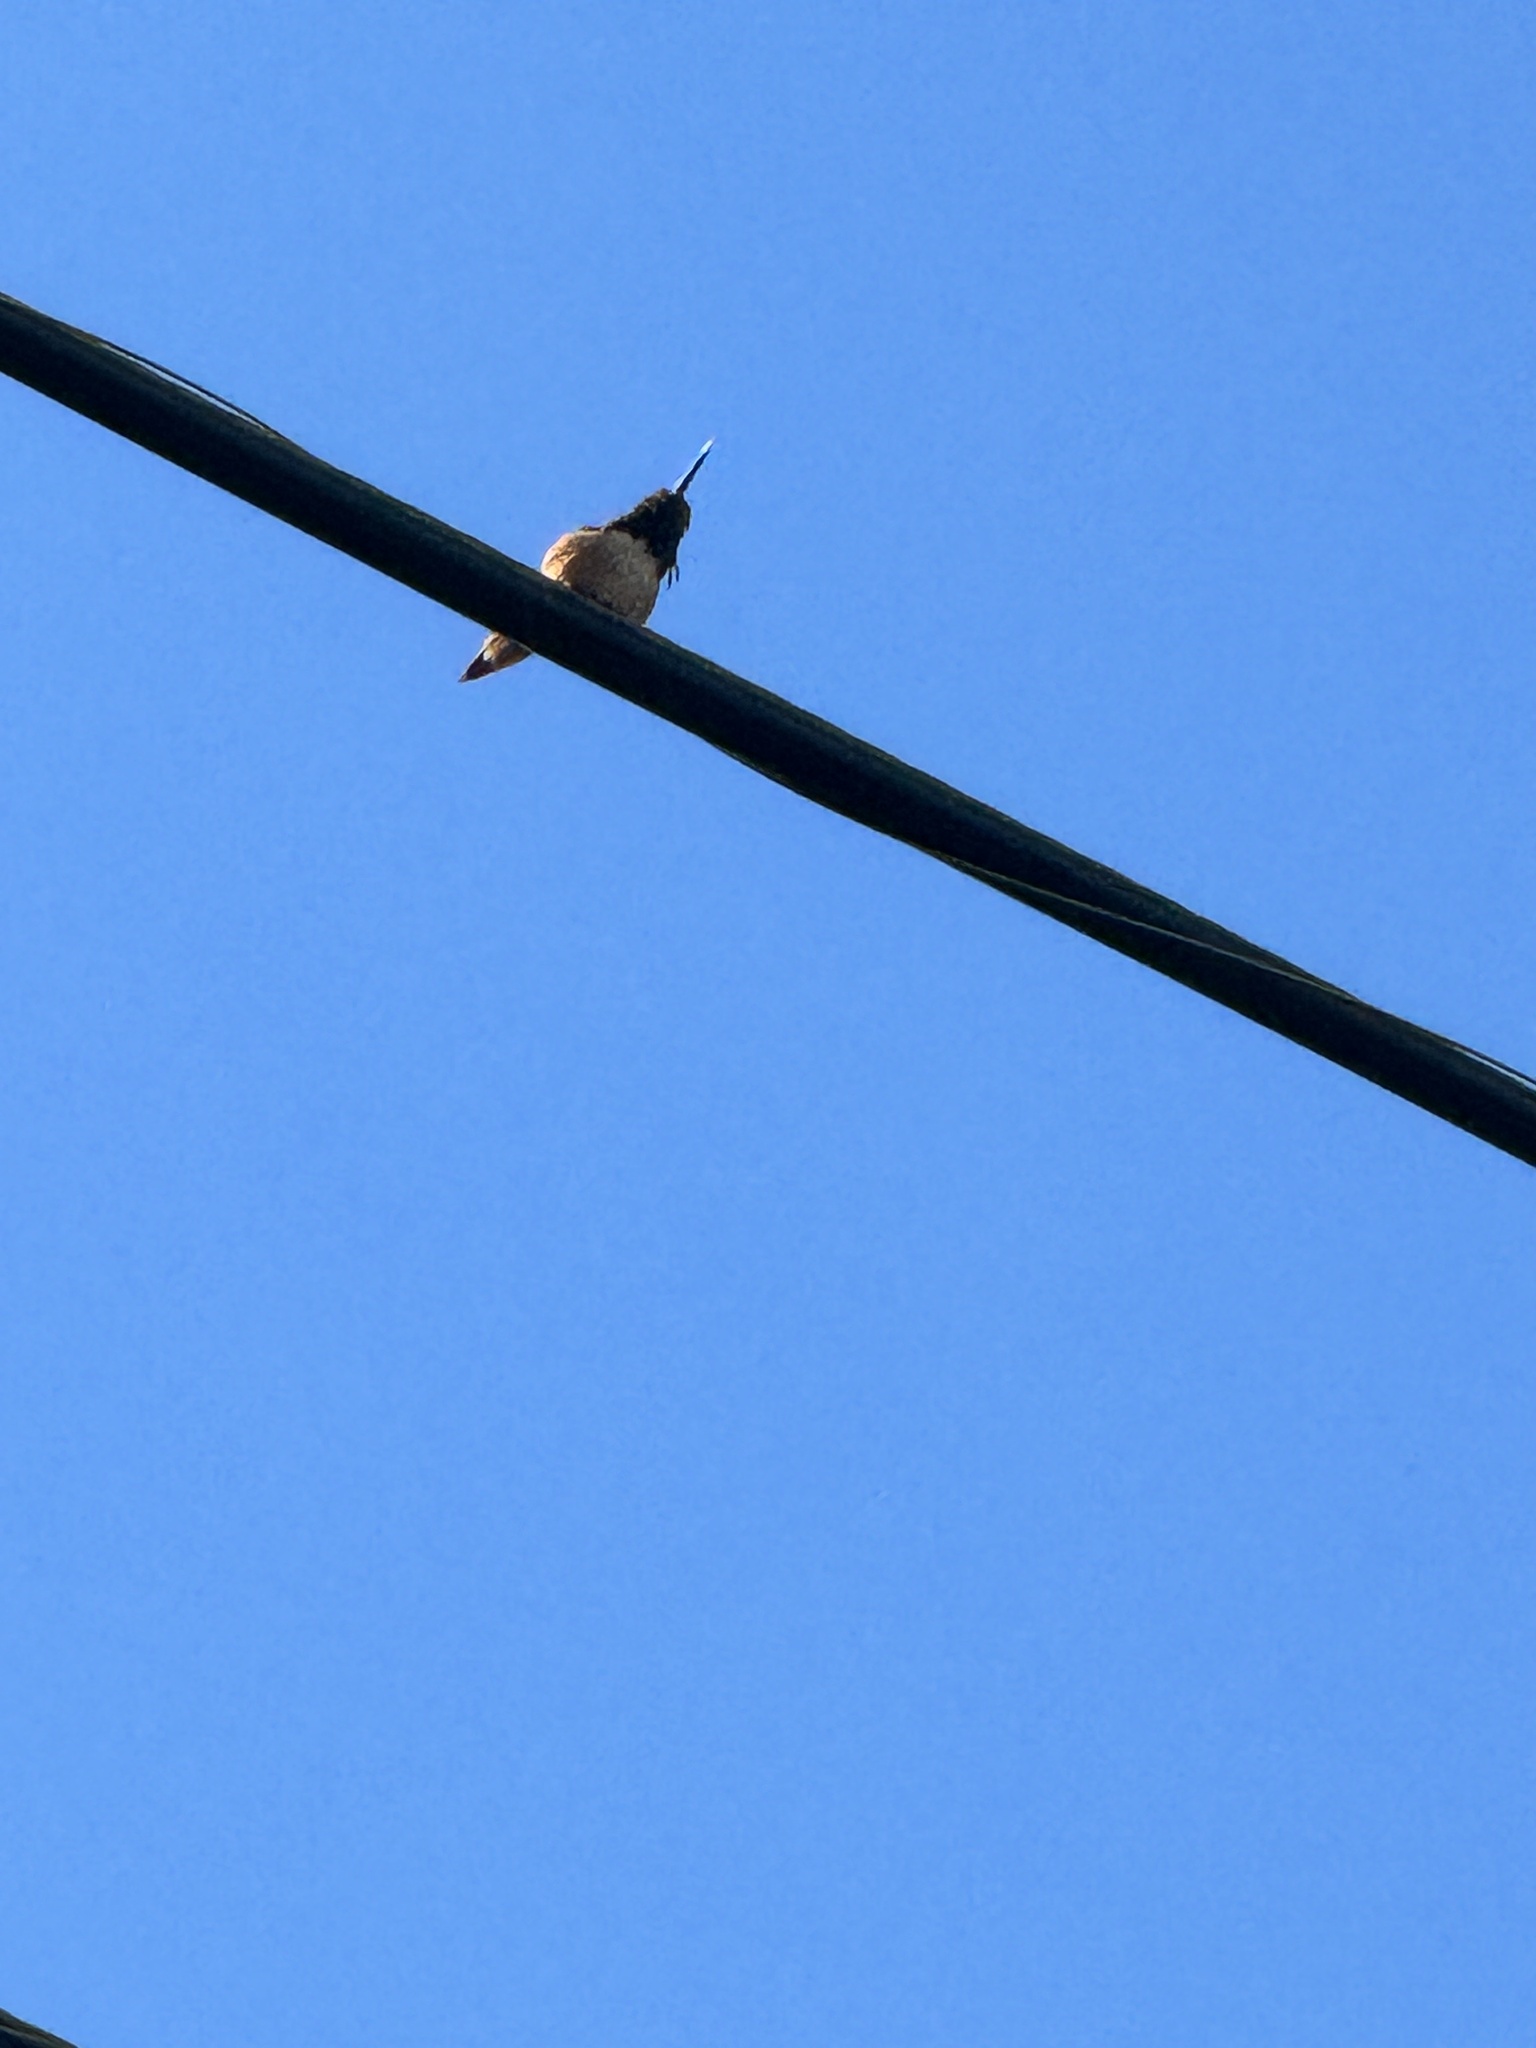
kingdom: Animalia
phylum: Chordata
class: Aves
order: Apodiformes
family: Trochilidae
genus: Selasphorus
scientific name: Selasphorus sasin
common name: Allen's hummingbird
